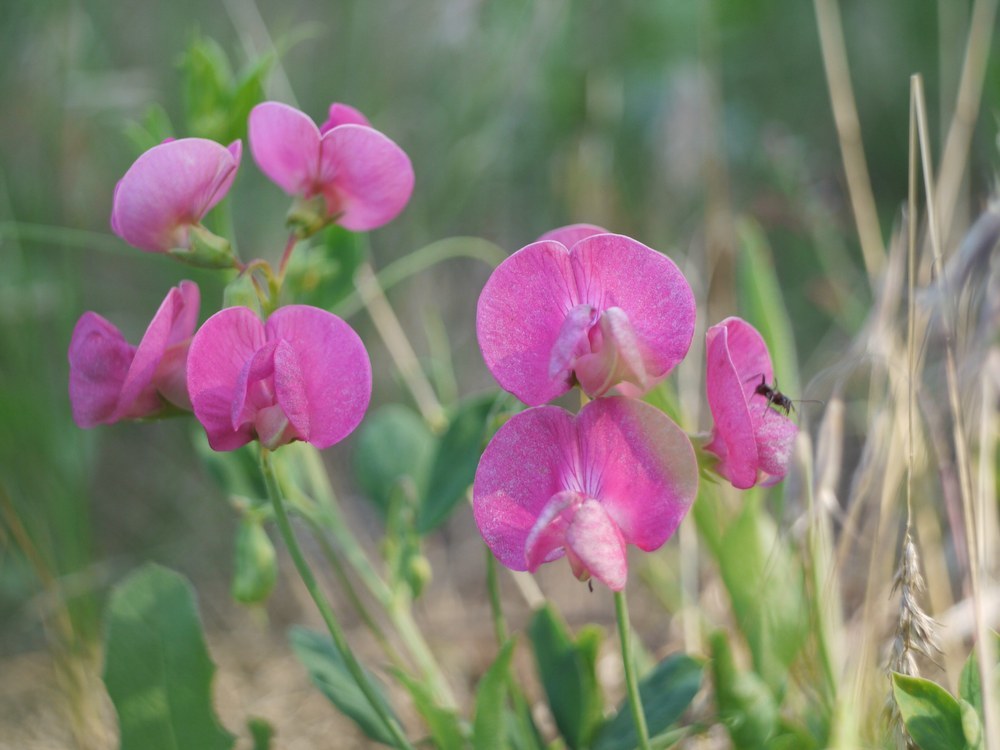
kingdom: Plantae
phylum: Tracheophyta
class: Magnoliopsida
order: Fabales
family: Fabaceae
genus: Lathyrus
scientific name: Lathyrus tuberosus
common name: Tuberous pea
